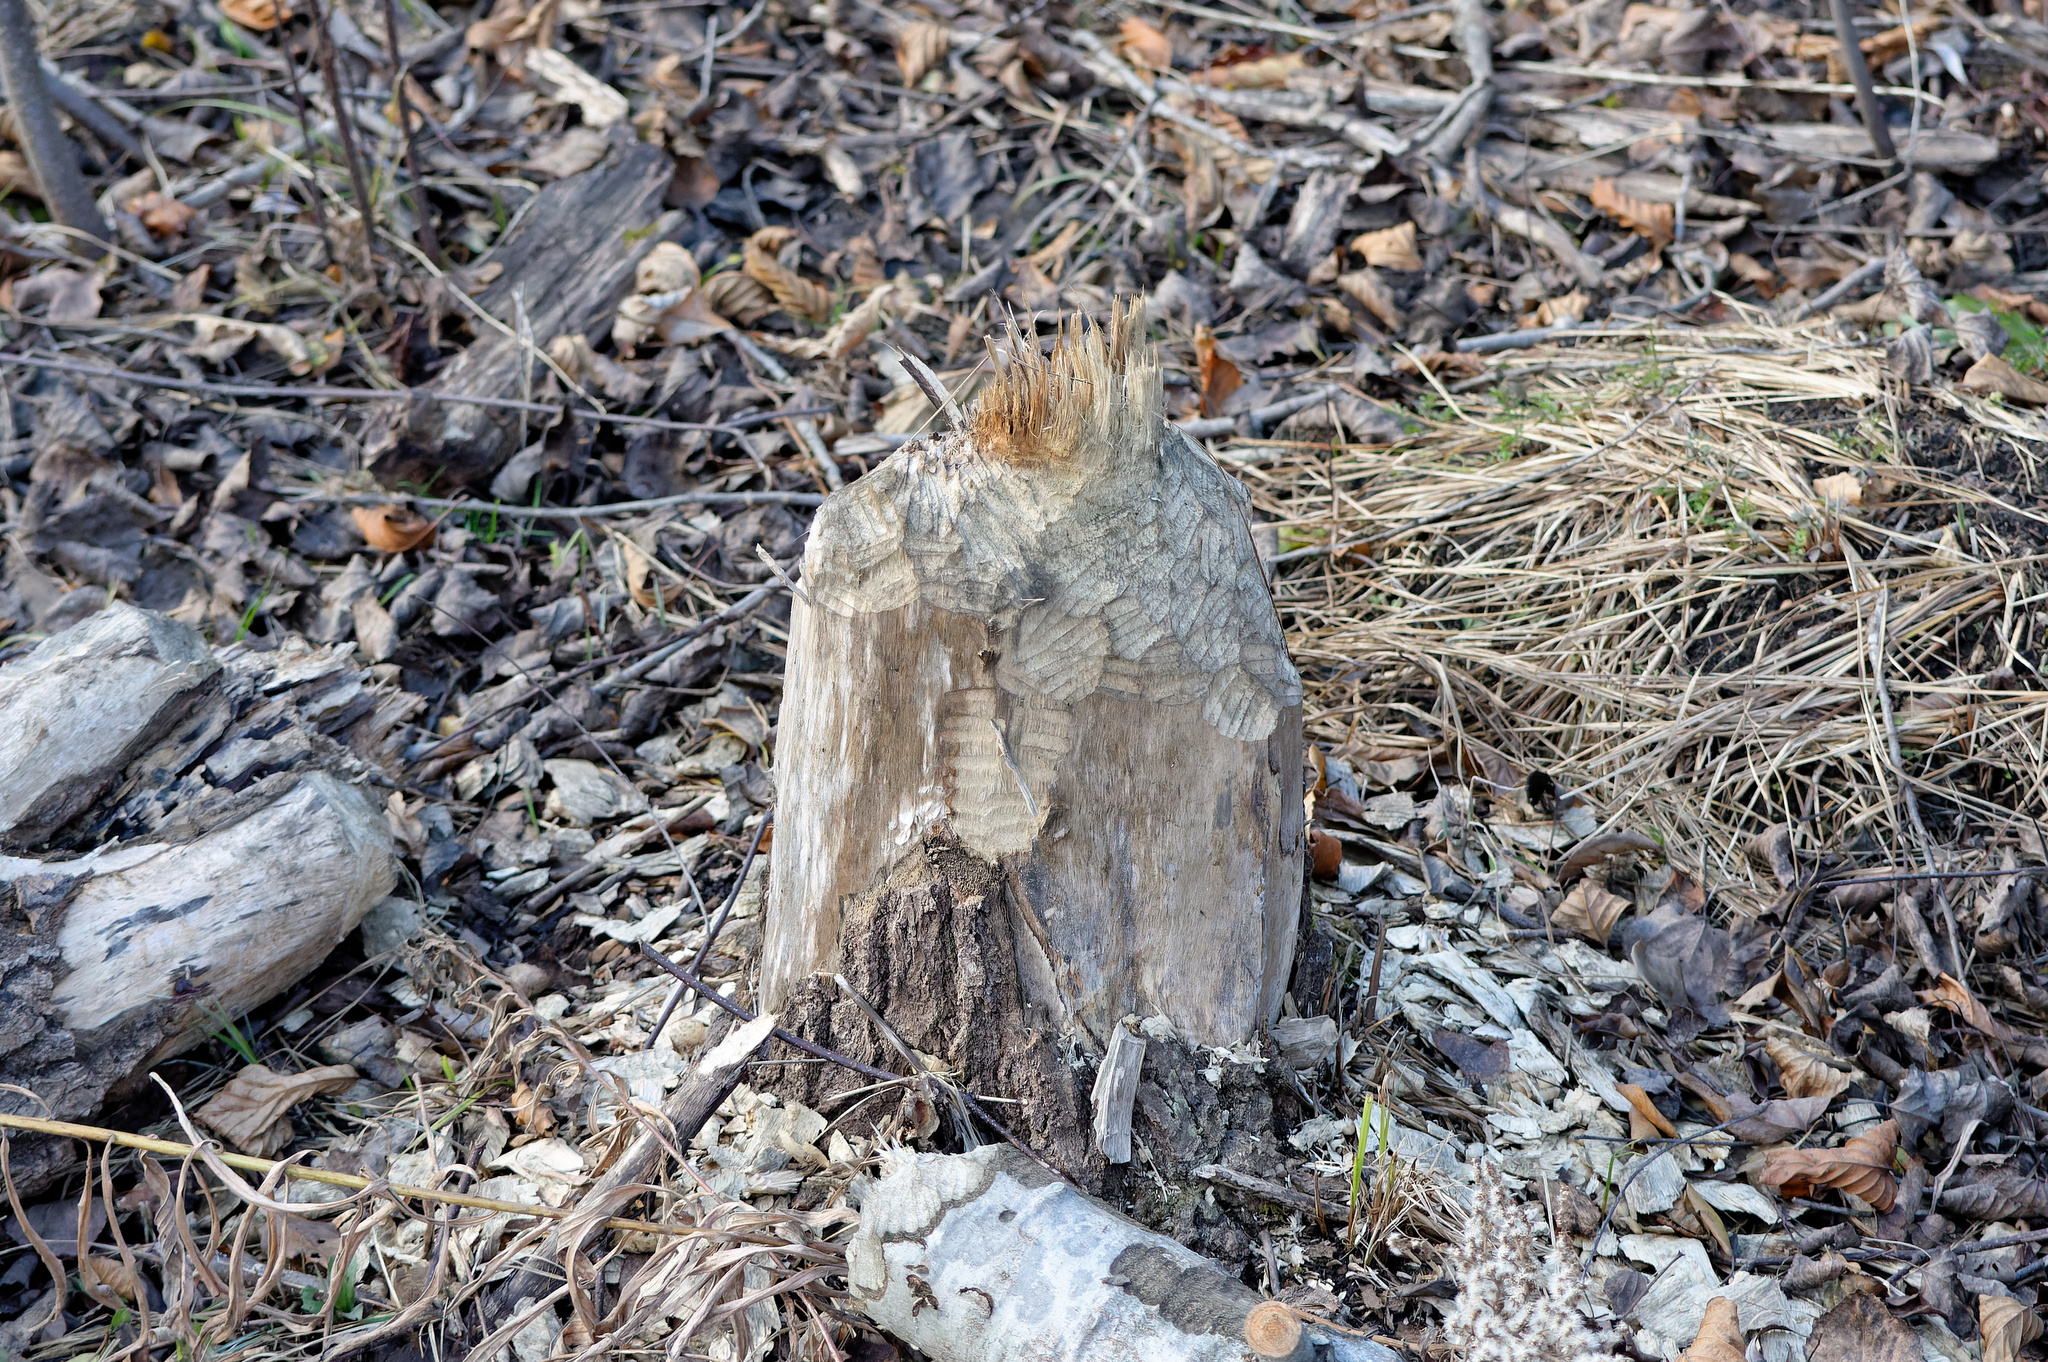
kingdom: Animalia
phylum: Chordata
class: Mammalia
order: Rodentia
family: Castoridae
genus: Castor
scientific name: Castor canadensis
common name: American beaver
